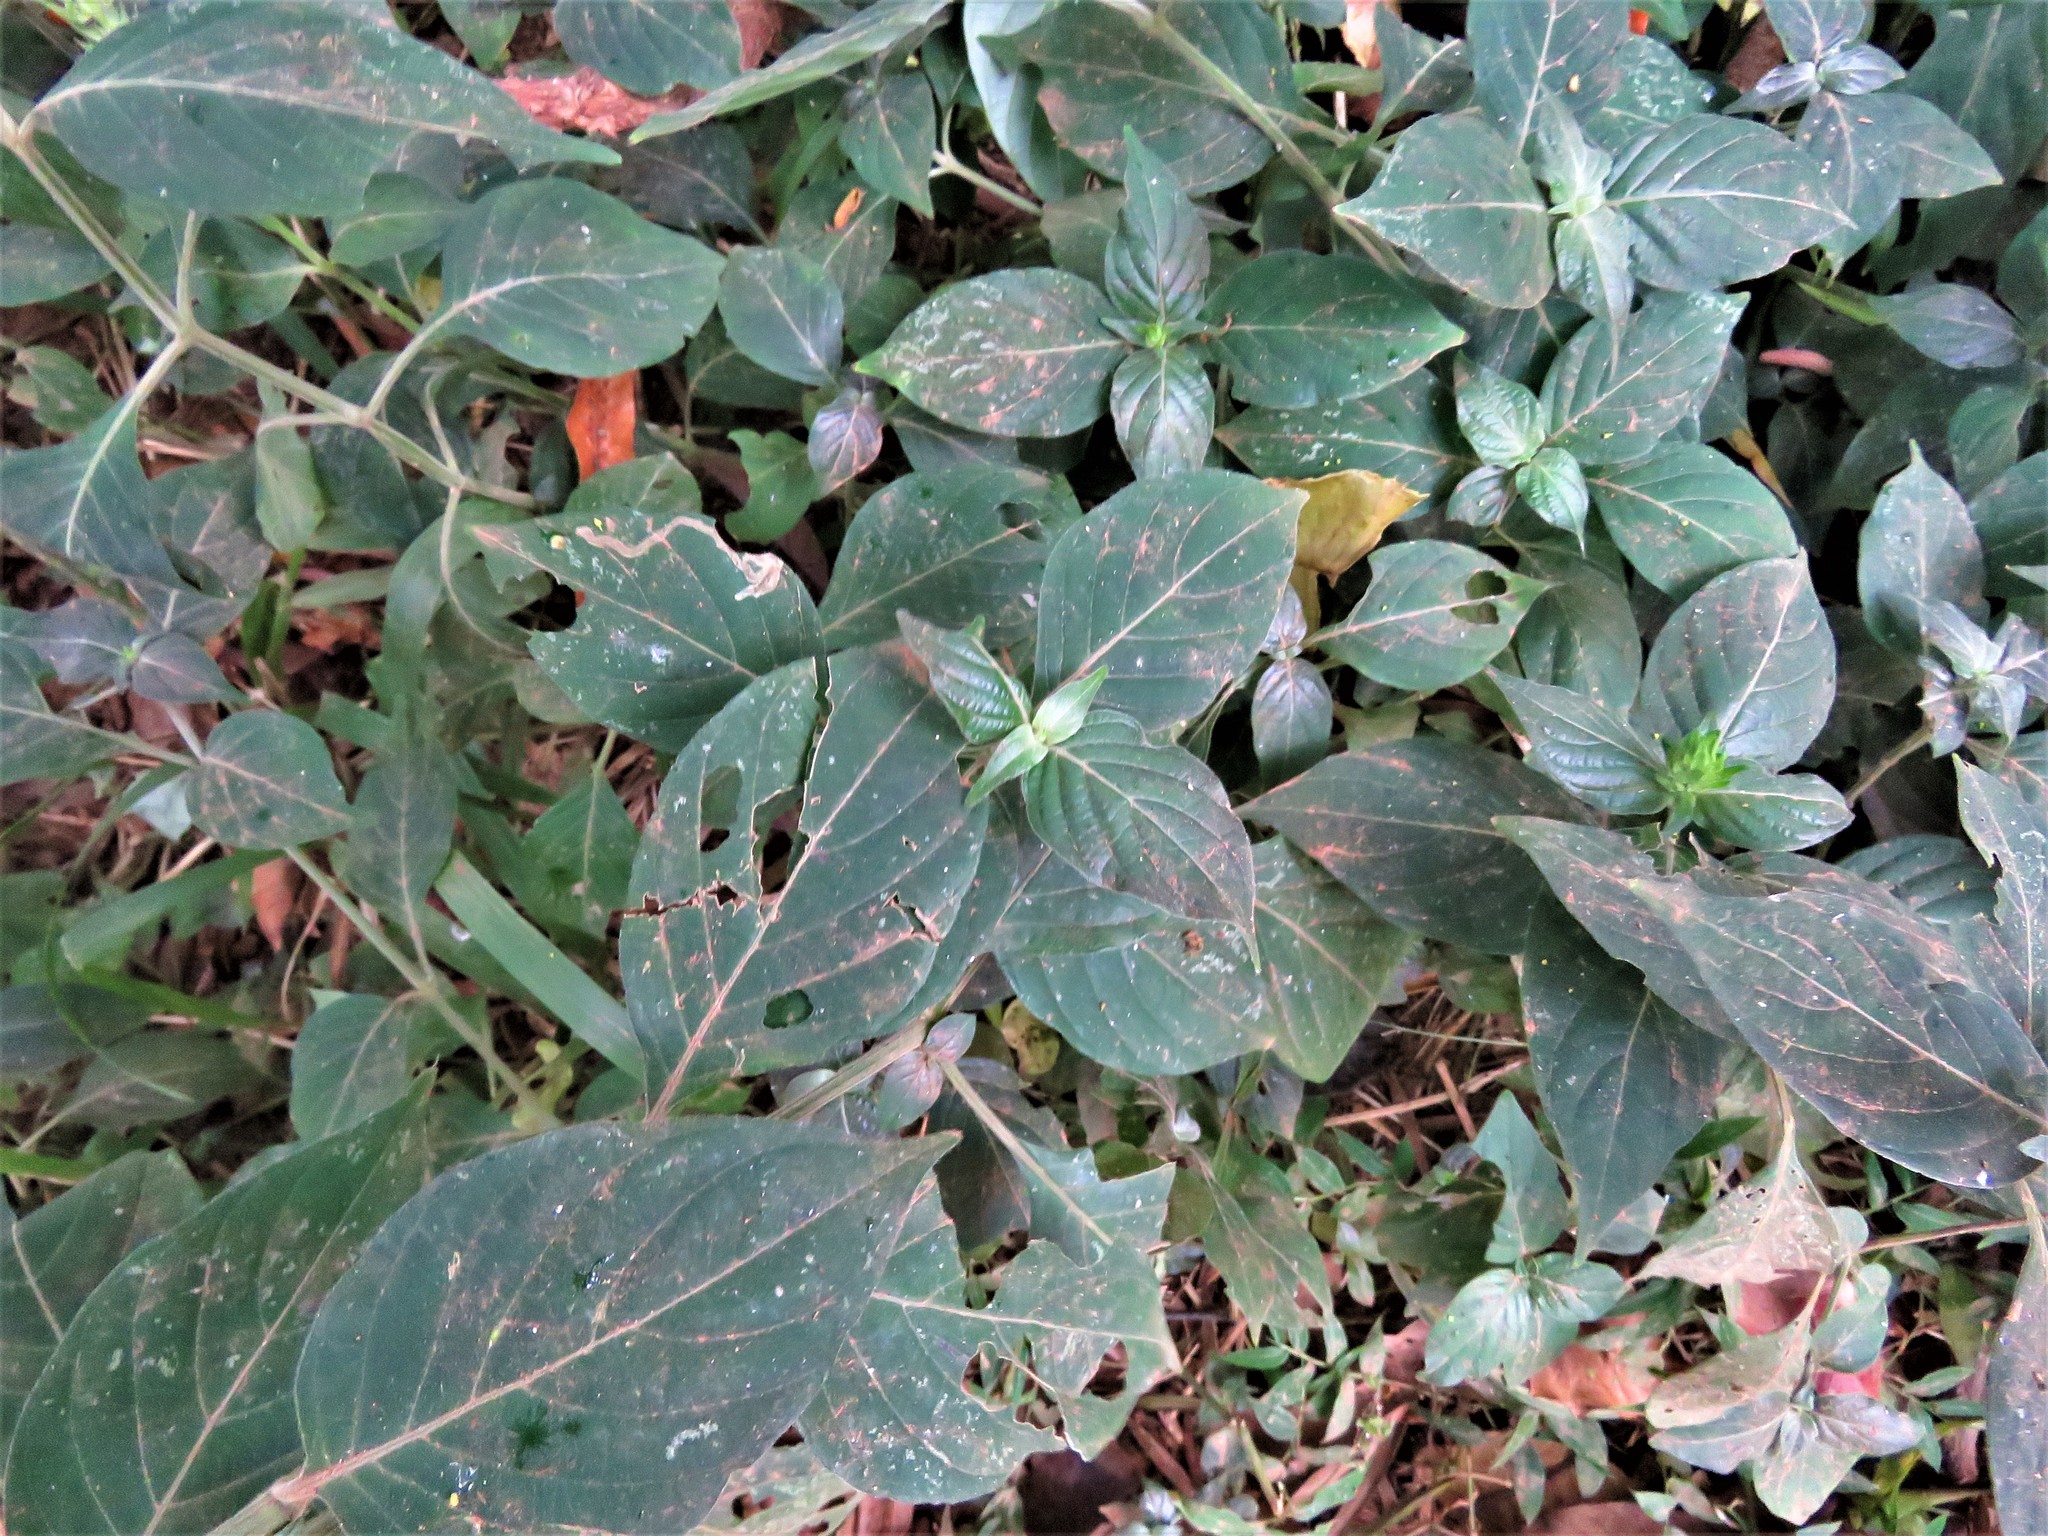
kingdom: Plantae
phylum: Tracheophyta
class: Magnoliopsida
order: Lamiales
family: Acanthaceae
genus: Justicia
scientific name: Justicia flava
